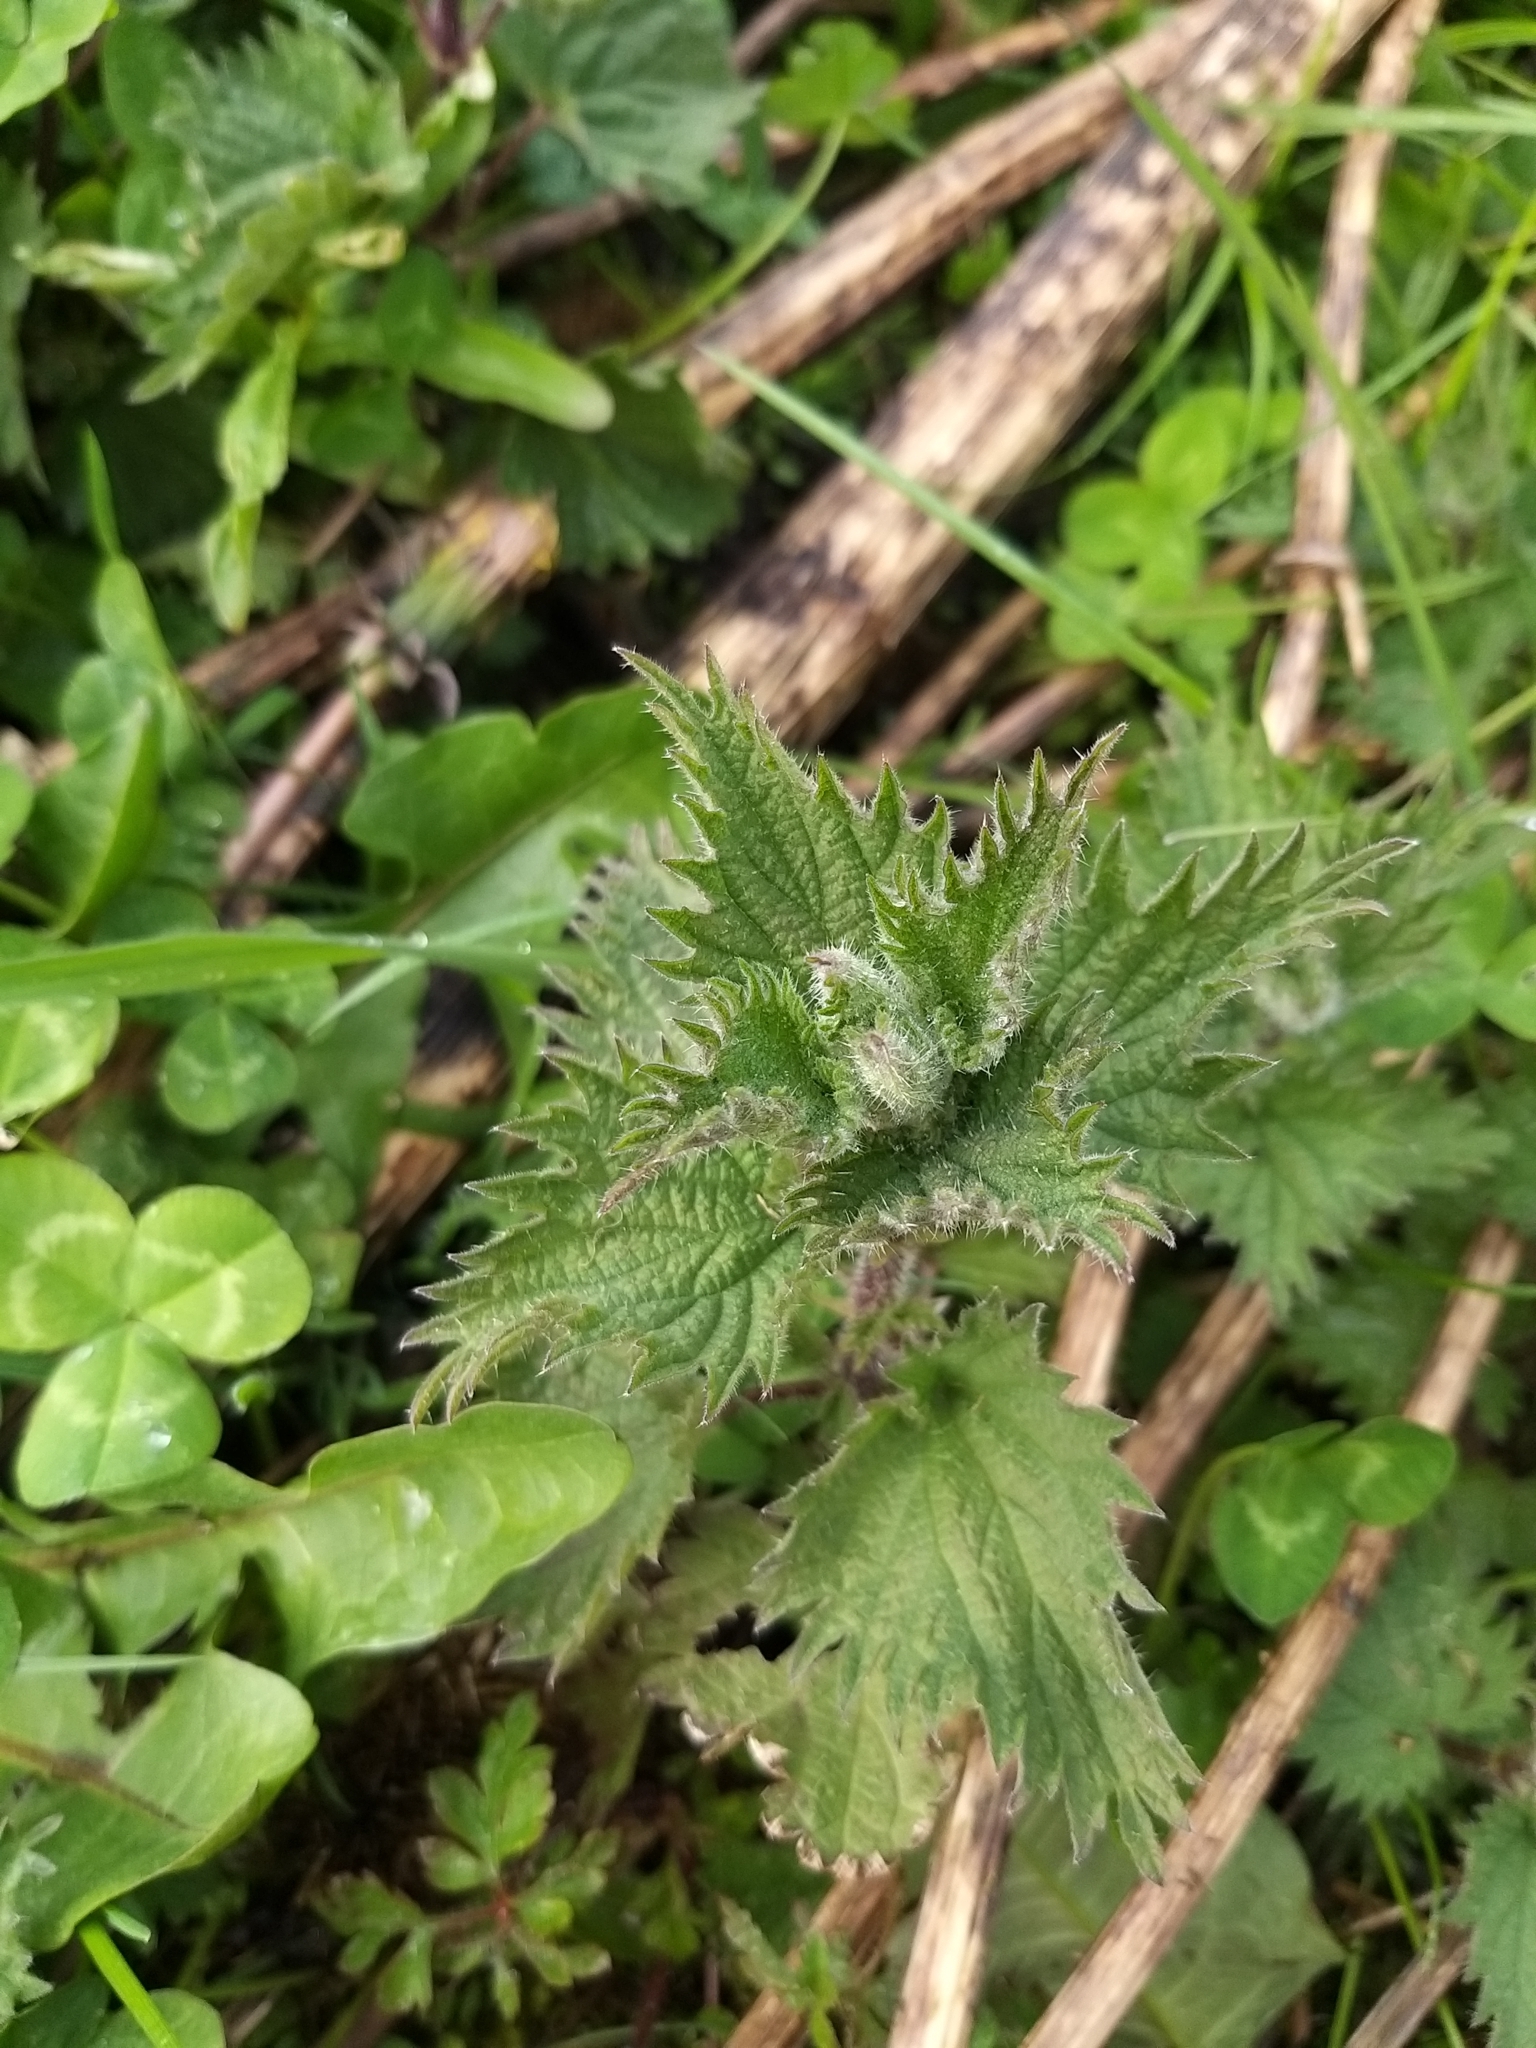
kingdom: Plantae
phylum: Tracheophyta
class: Magnoliopsida
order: Rosales
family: Urticaceae
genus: Urtica
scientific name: Urtica dioica
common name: Common nettle
